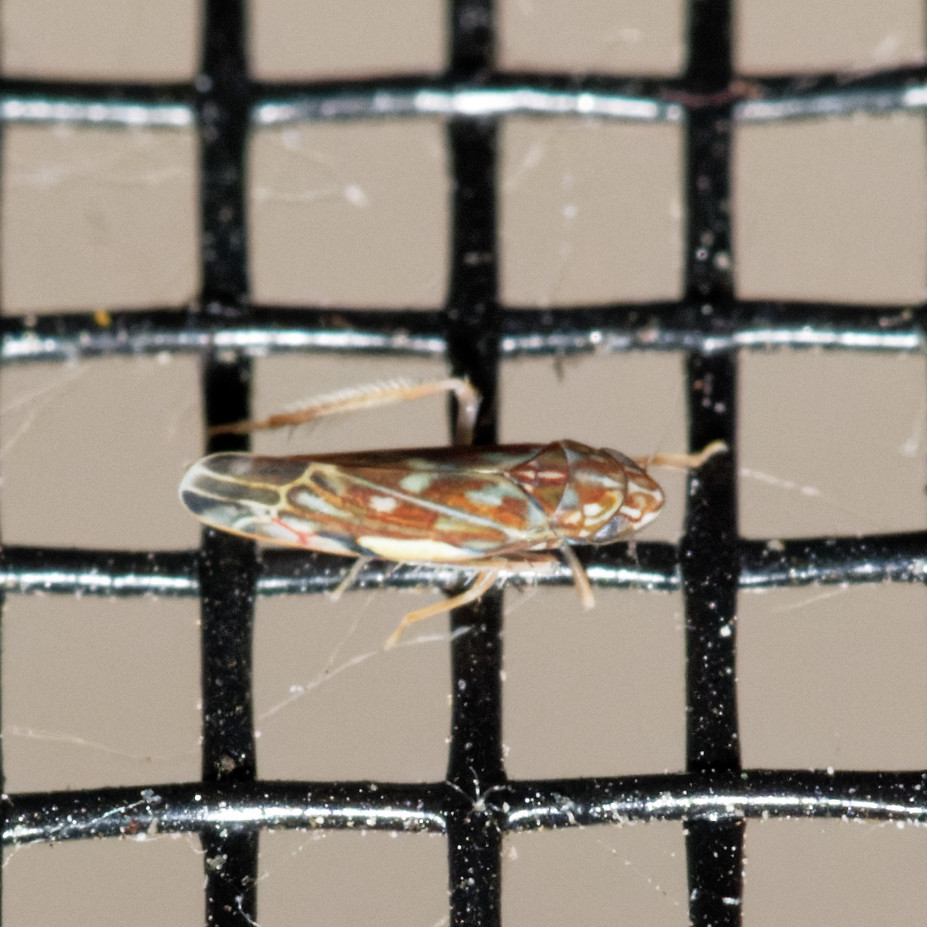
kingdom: Animalia
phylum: Arthropoda
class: Insecta
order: Hemiptera
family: Cicadellidae
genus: Erasmoneura
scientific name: Erasmoneura vulnerata
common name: The wounded leafhopper
